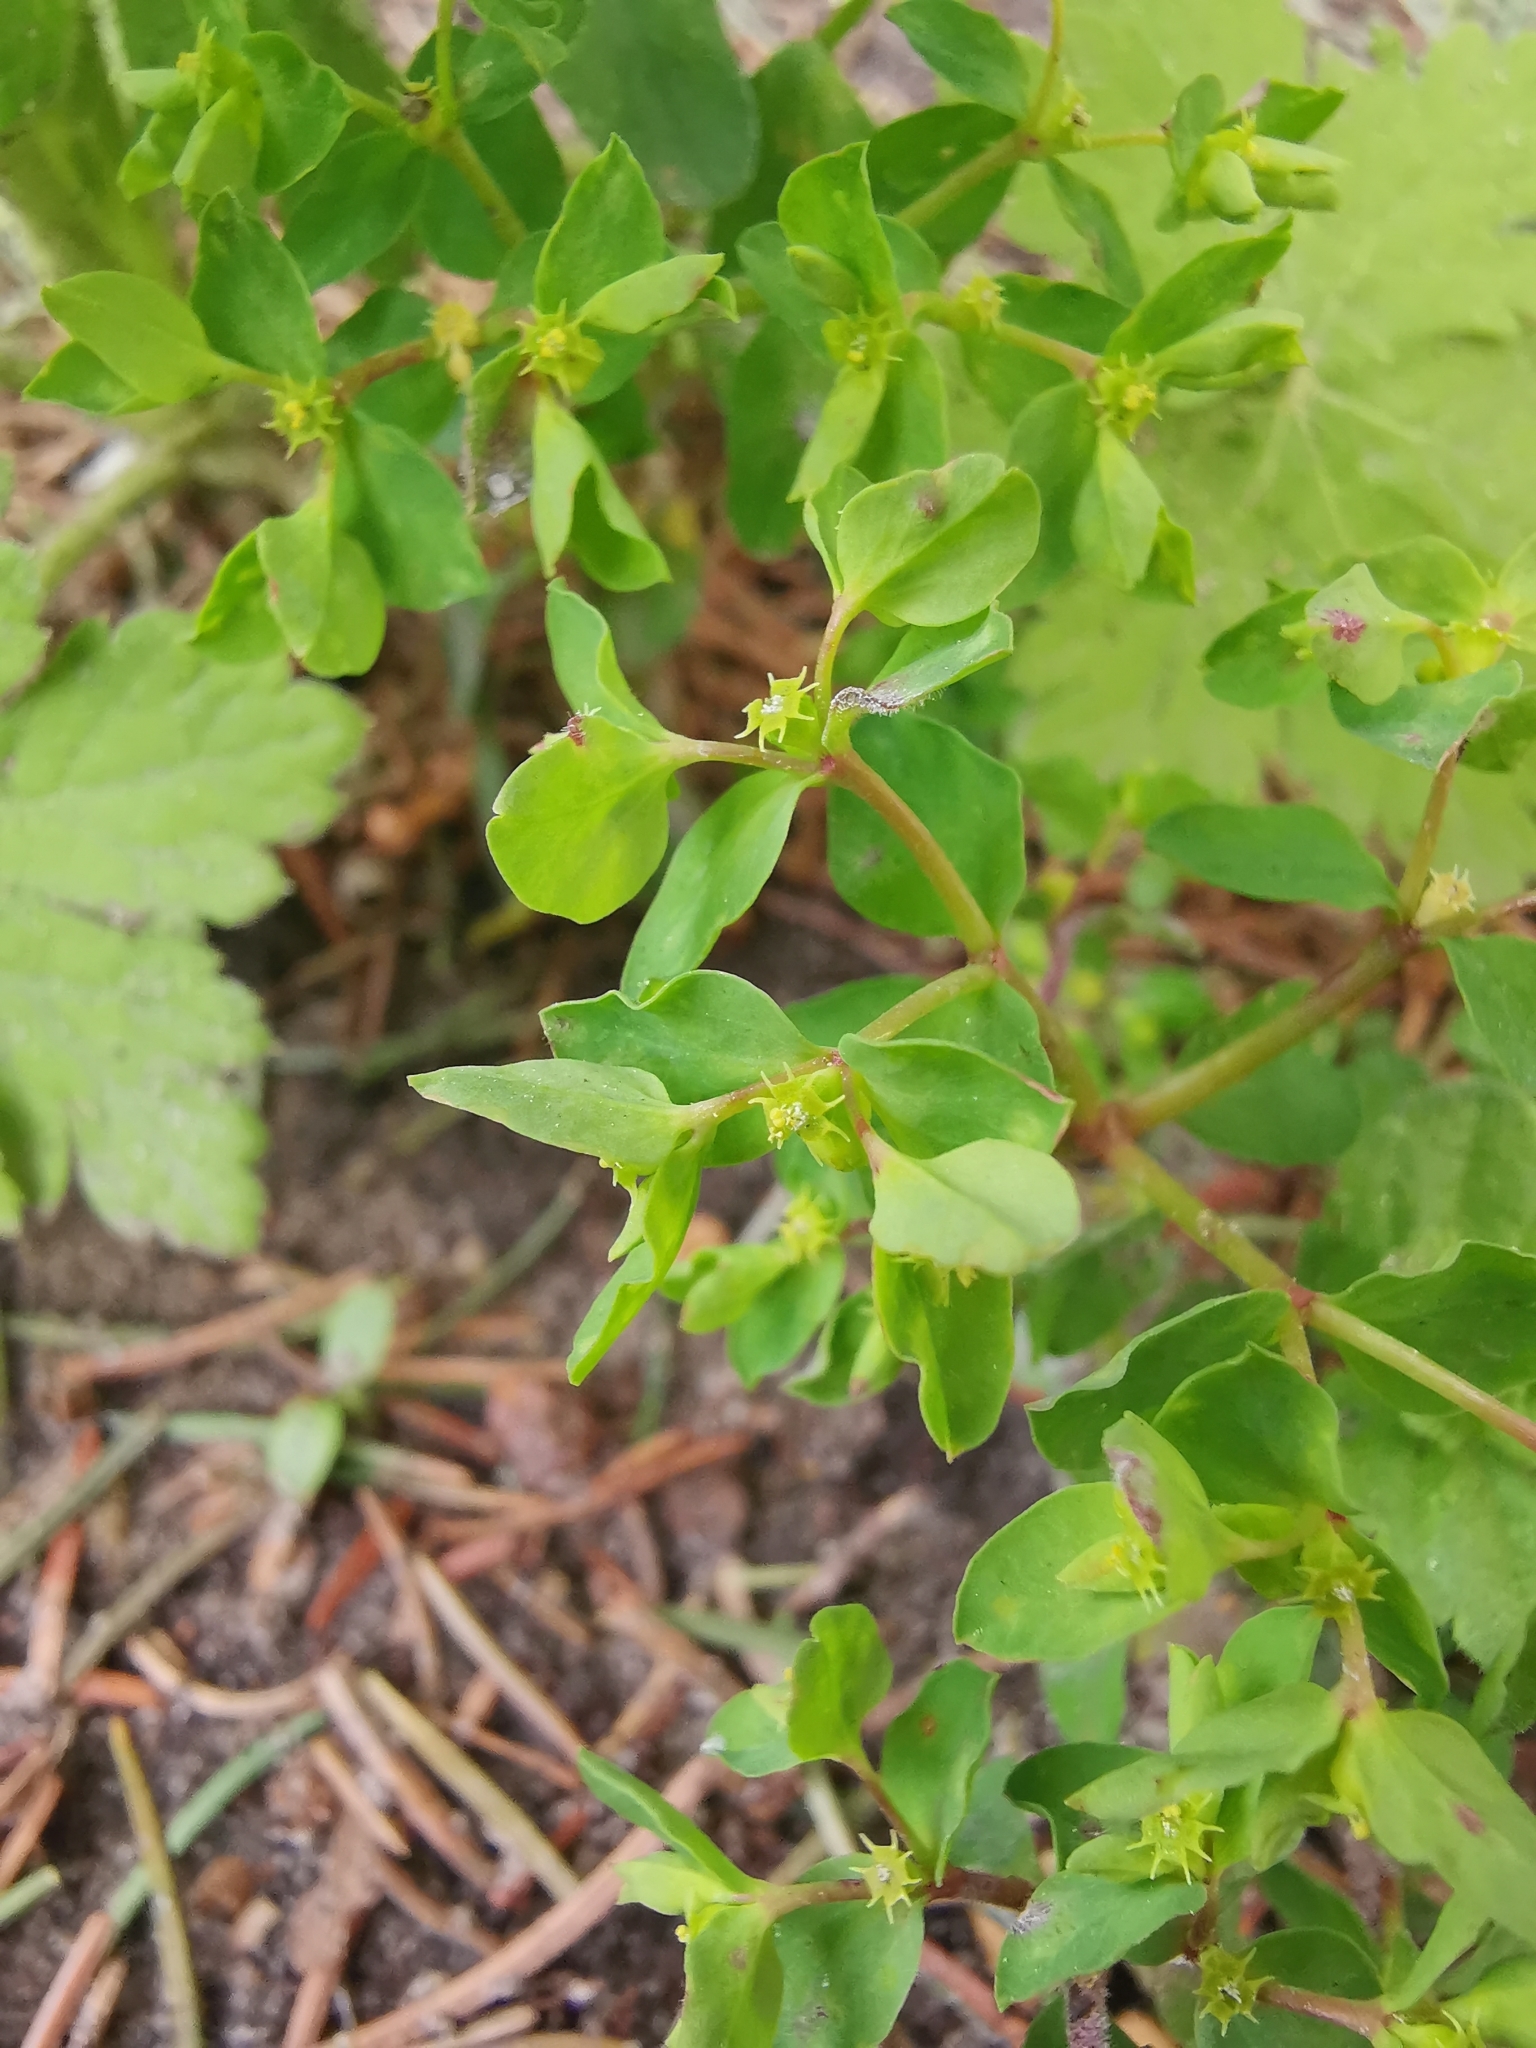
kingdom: Plantae
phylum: Tracheophyta
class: Magnoliopsida
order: Malpighiales
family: Euphorbiaceae
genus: Euphorbia
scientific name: Euphorbia peplus
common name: Petty spurge
